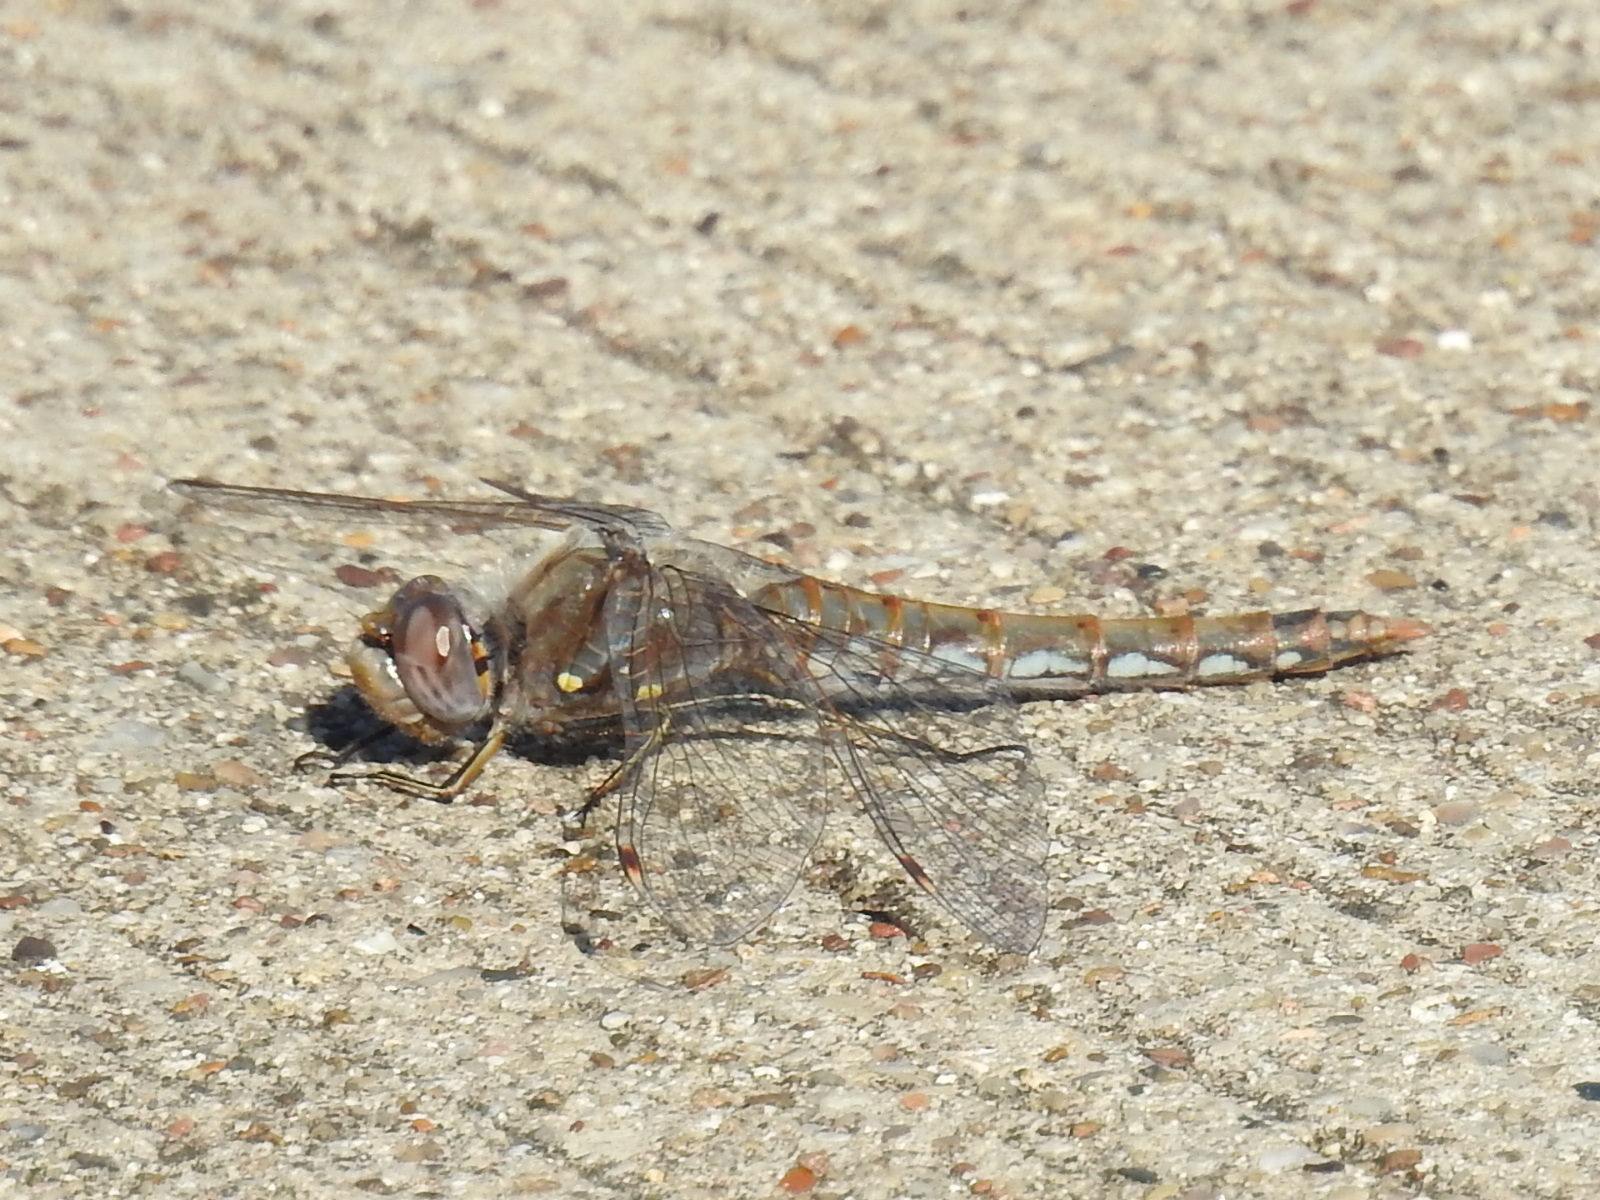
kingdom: Animalia
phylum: Arthropoda
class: Insecta
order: Odonata
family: Libellulidae
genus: Sympetrum
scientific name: Sympetrum corruptum
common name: Variegated meadowhawk
